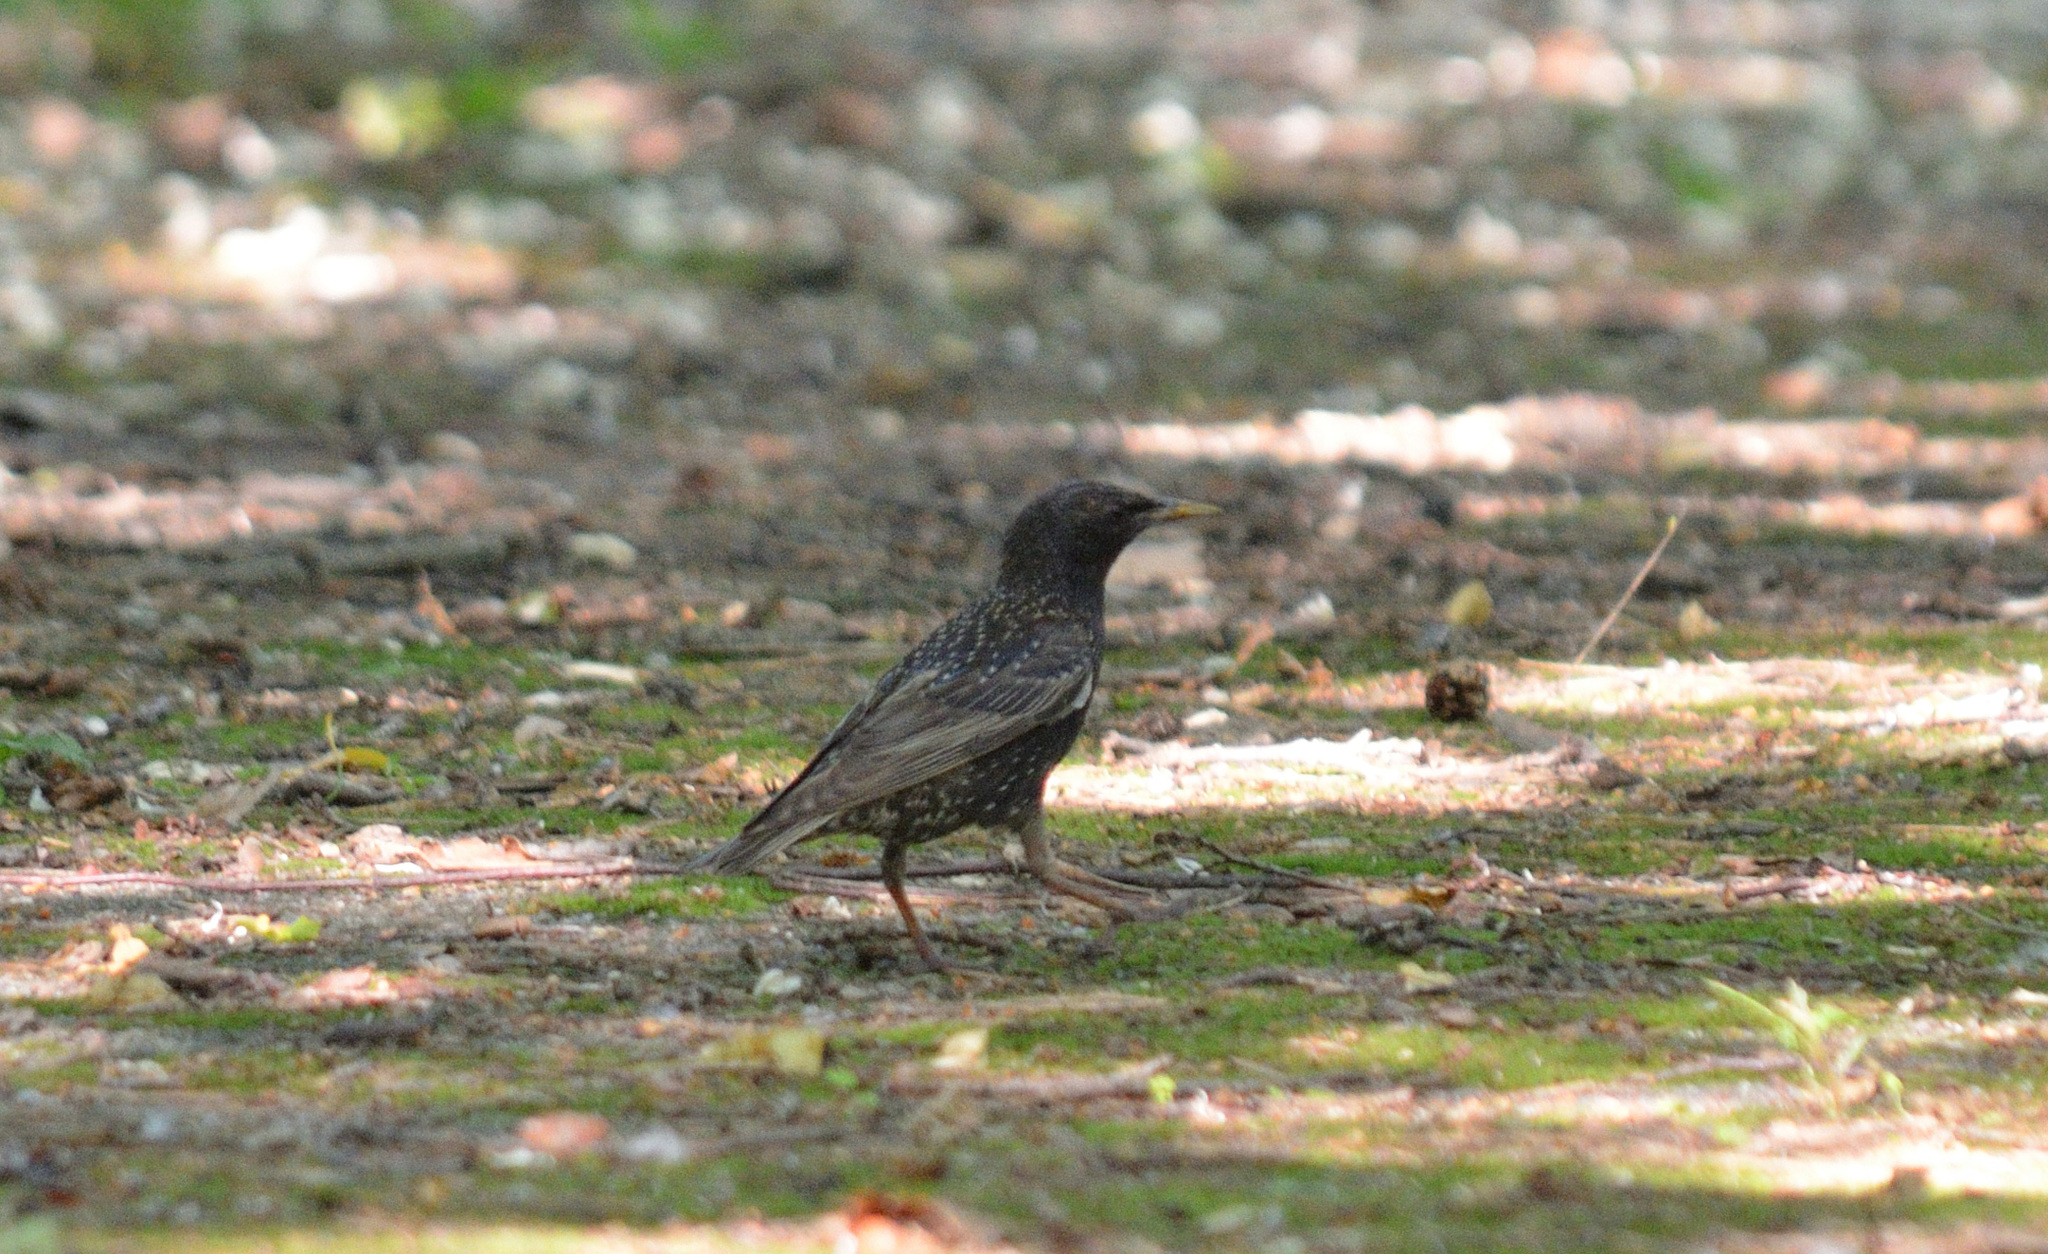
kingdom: Animalia
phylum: Chordata
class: Aves
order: Passeriformes
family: Sturnidae
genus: Sturnus
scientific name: Sturnus vulgaris
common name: Common starling
